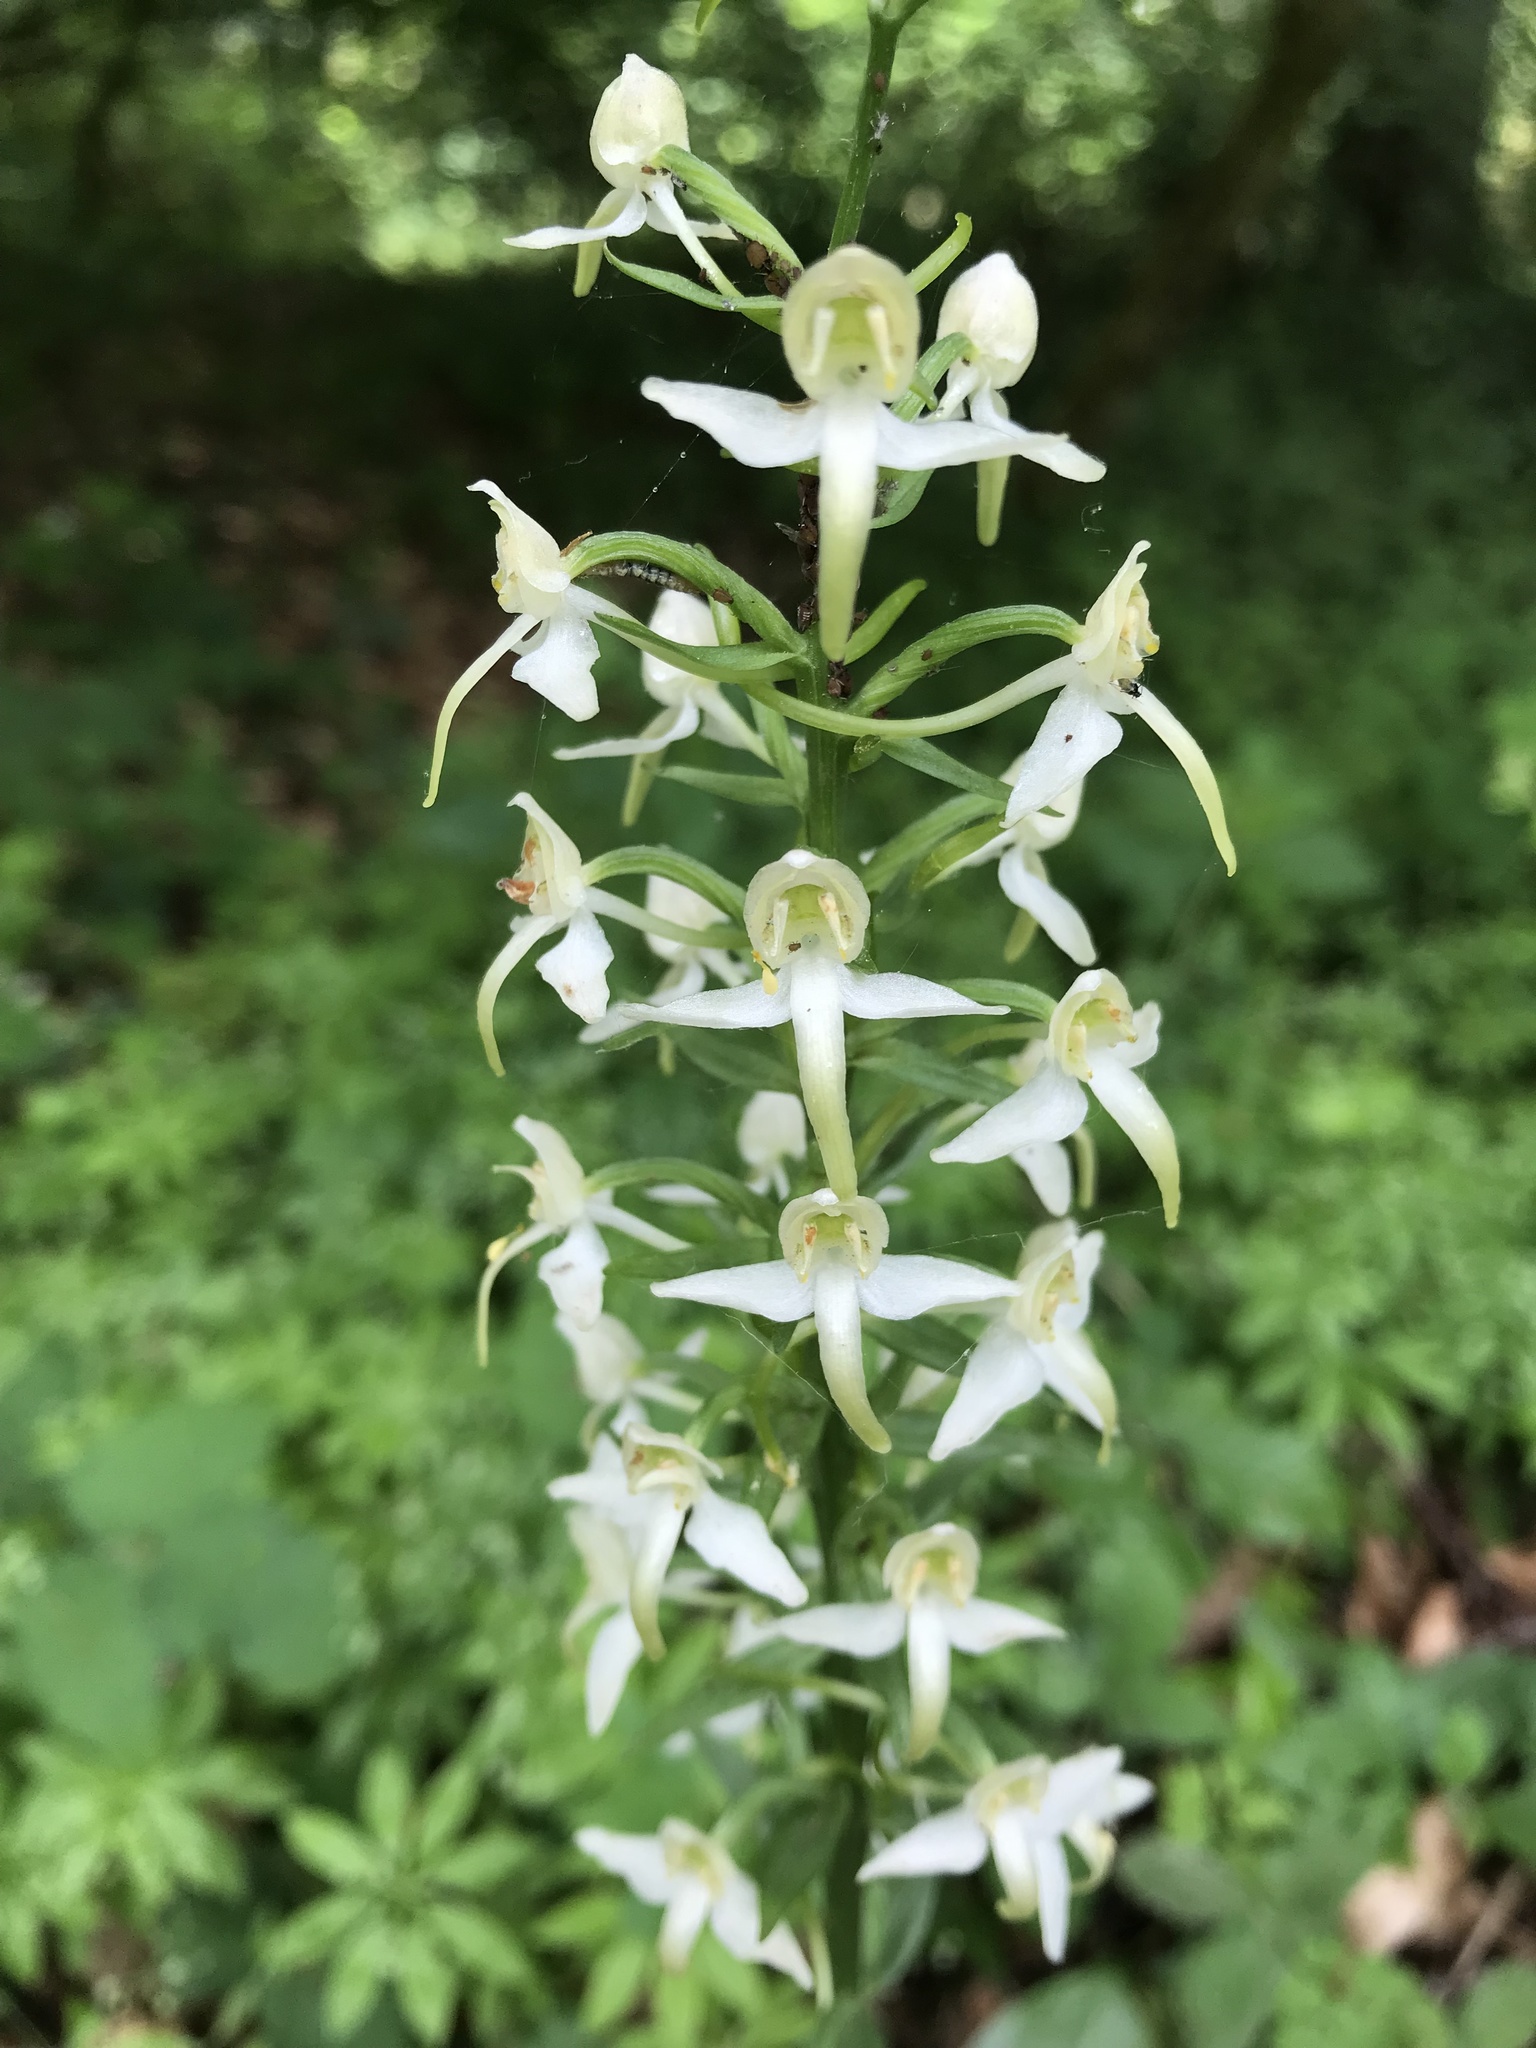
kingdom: Plantae
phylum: Tracheophyta
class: Liliopsida
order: Asparagales
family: Orchidaceae
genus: Platanthera
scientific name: Platanthera chlorantha
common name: Greater butterfly-orchid
